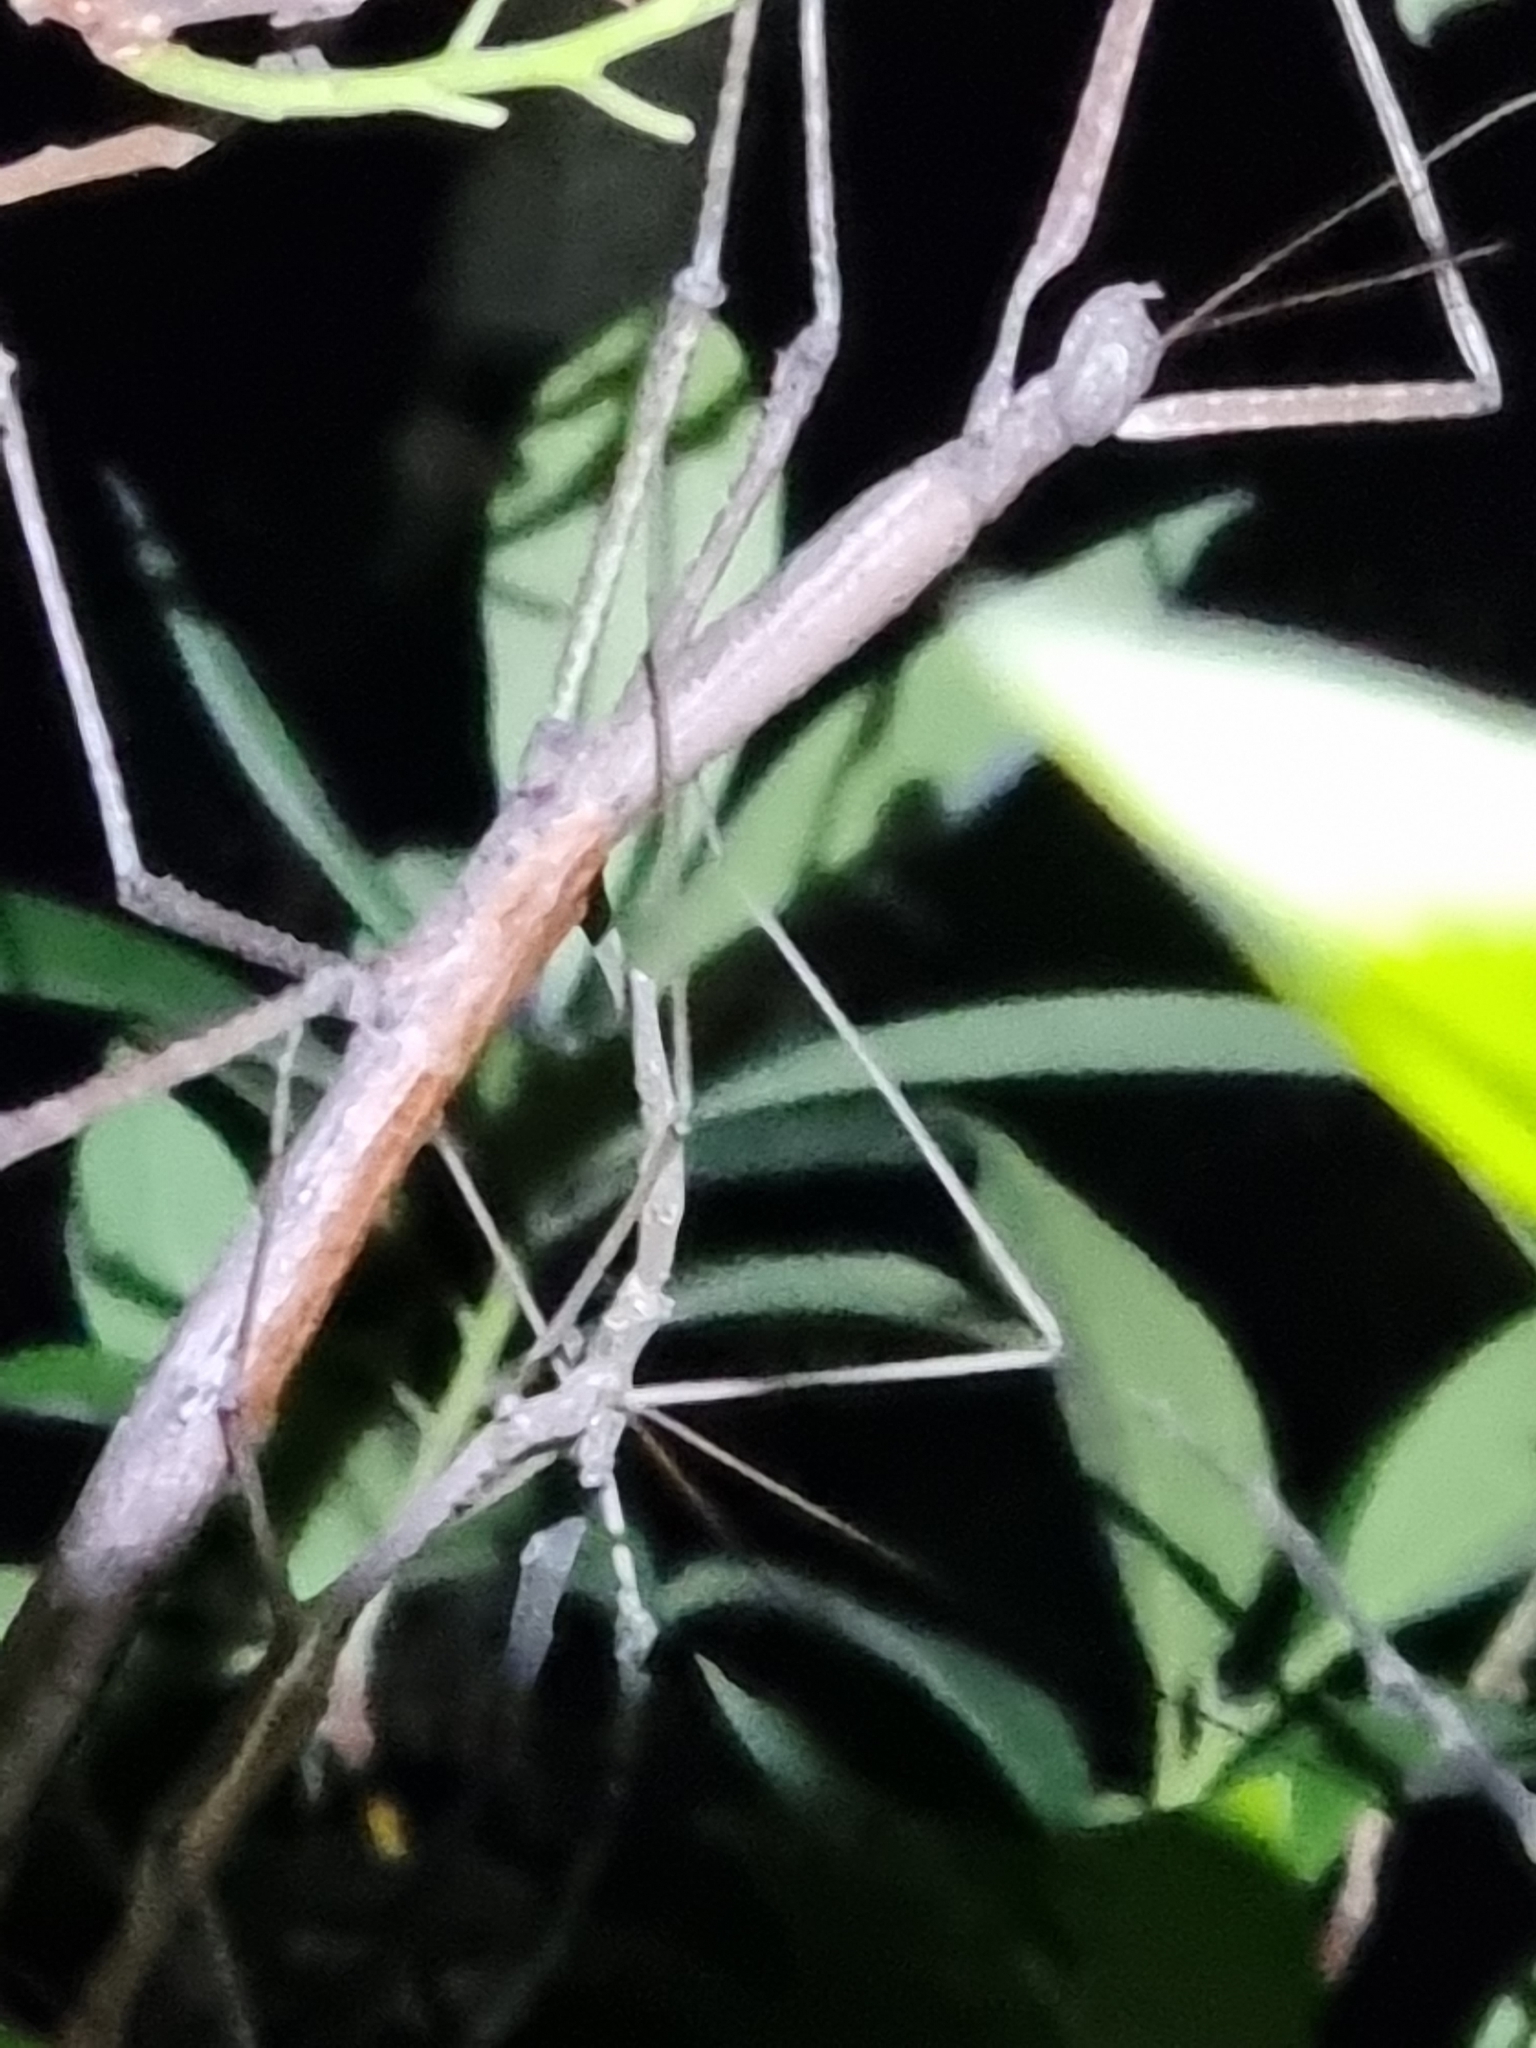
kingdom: Animalia
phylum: Arthropoda
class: Insecta
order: Phasmida
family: Phasmatidae
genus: Anchiale
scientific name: Anchiale austrotessulata
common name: Tessellated stick-insect
